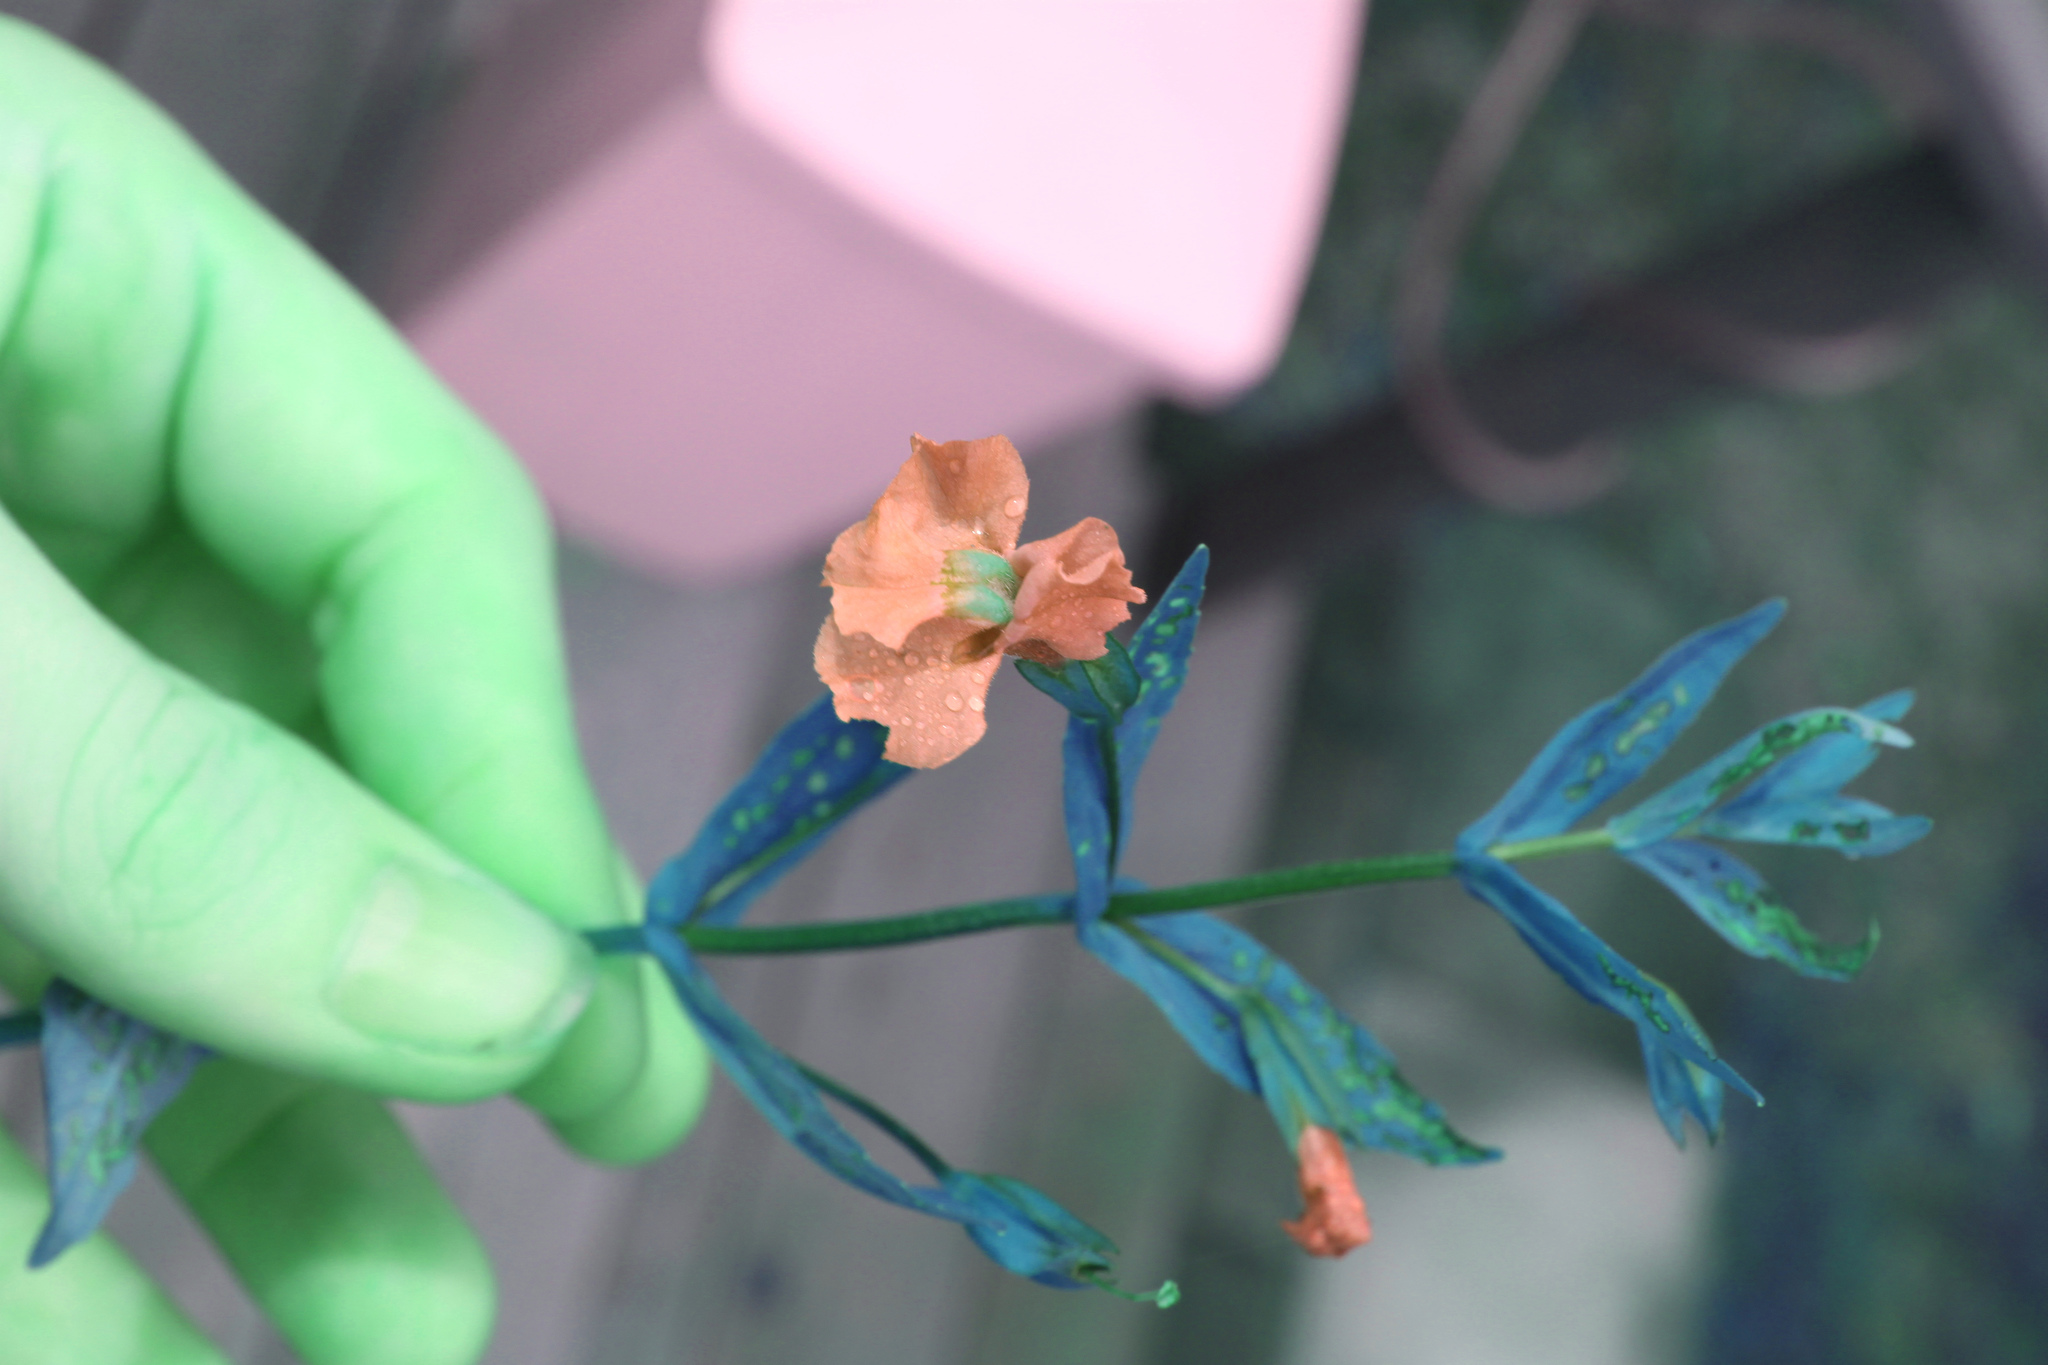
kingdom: Plantae
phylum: Tracheophyta
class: Magnoliopsida
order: Lamiales
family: Phrymaceae
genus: Mimulus
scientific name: Mimulus ringens
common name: Allegheny monkeyflower
